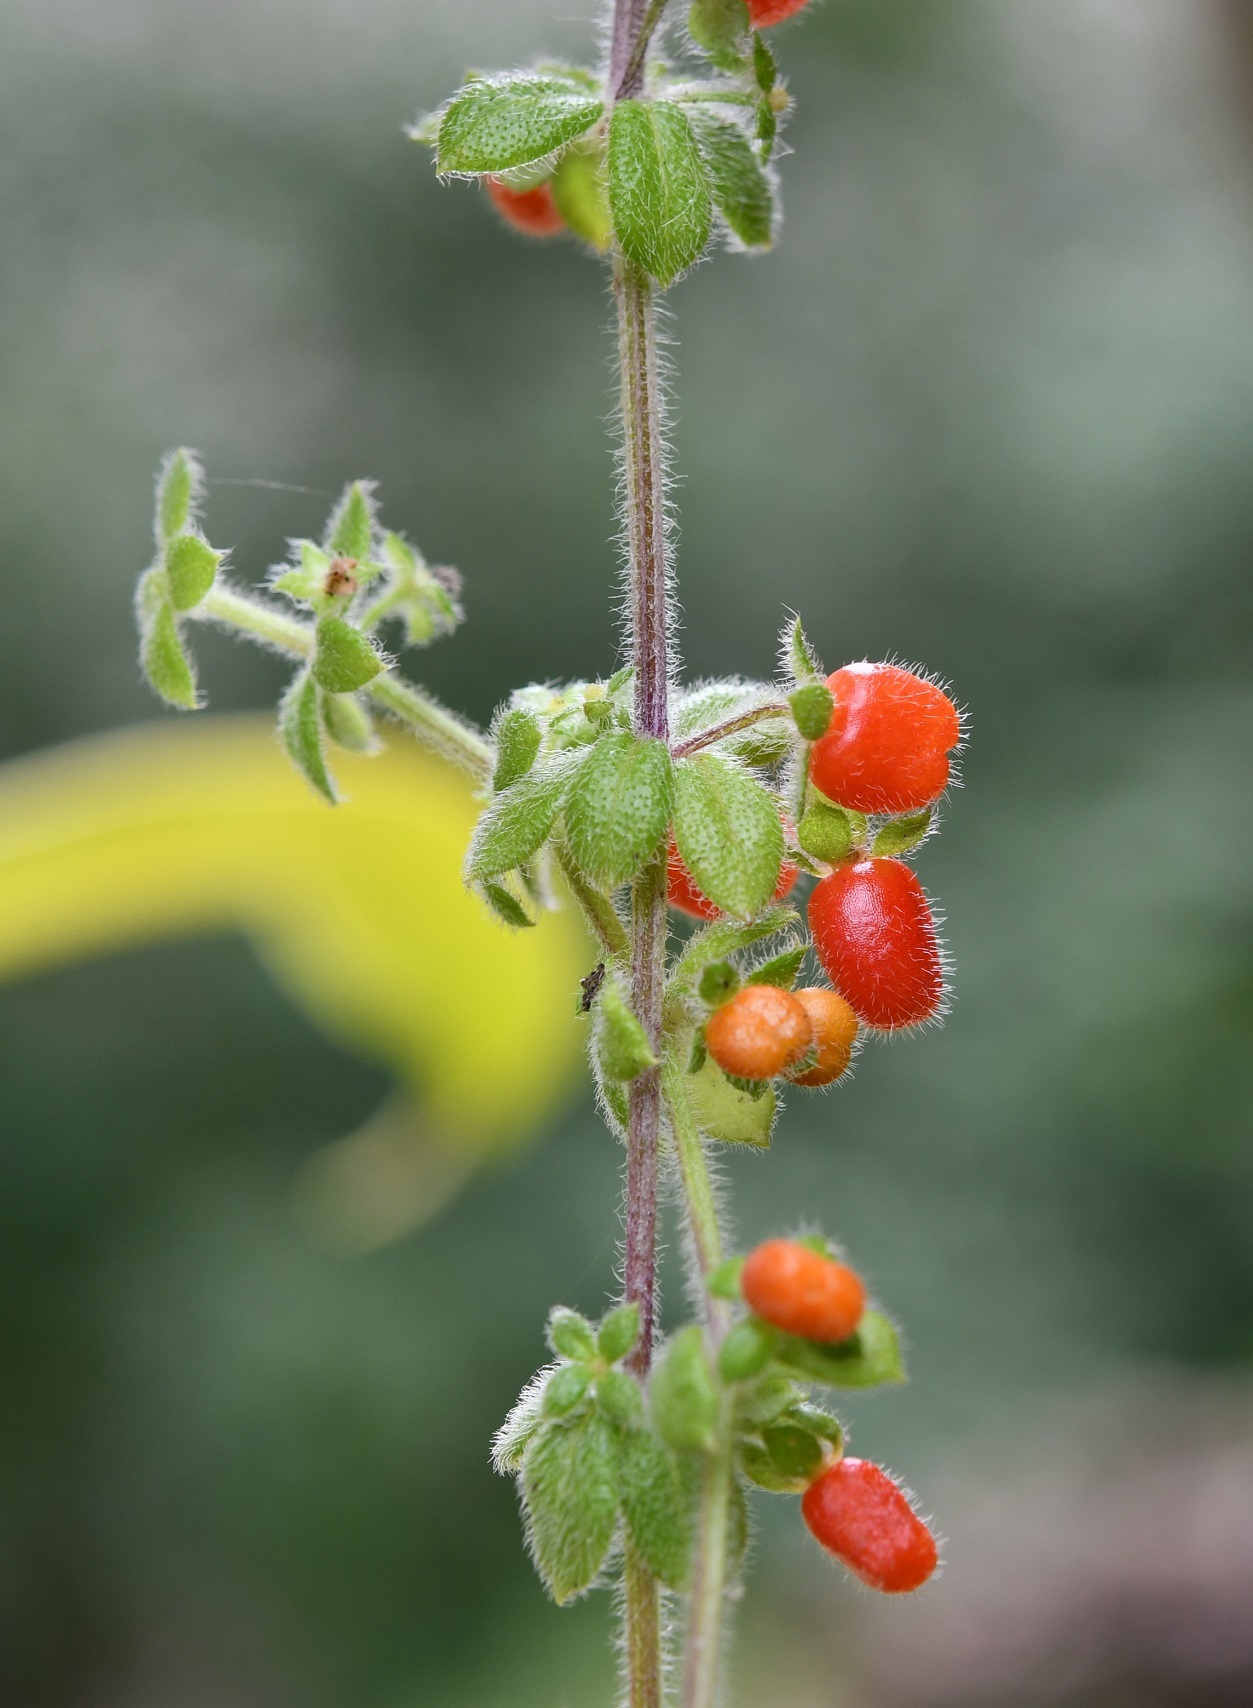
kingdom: Plantae
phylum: Tracheophyta
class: Magnoliopsida
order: Gentianales
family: Rubiaceae
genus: Galium
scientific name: Galium hypocarpium
